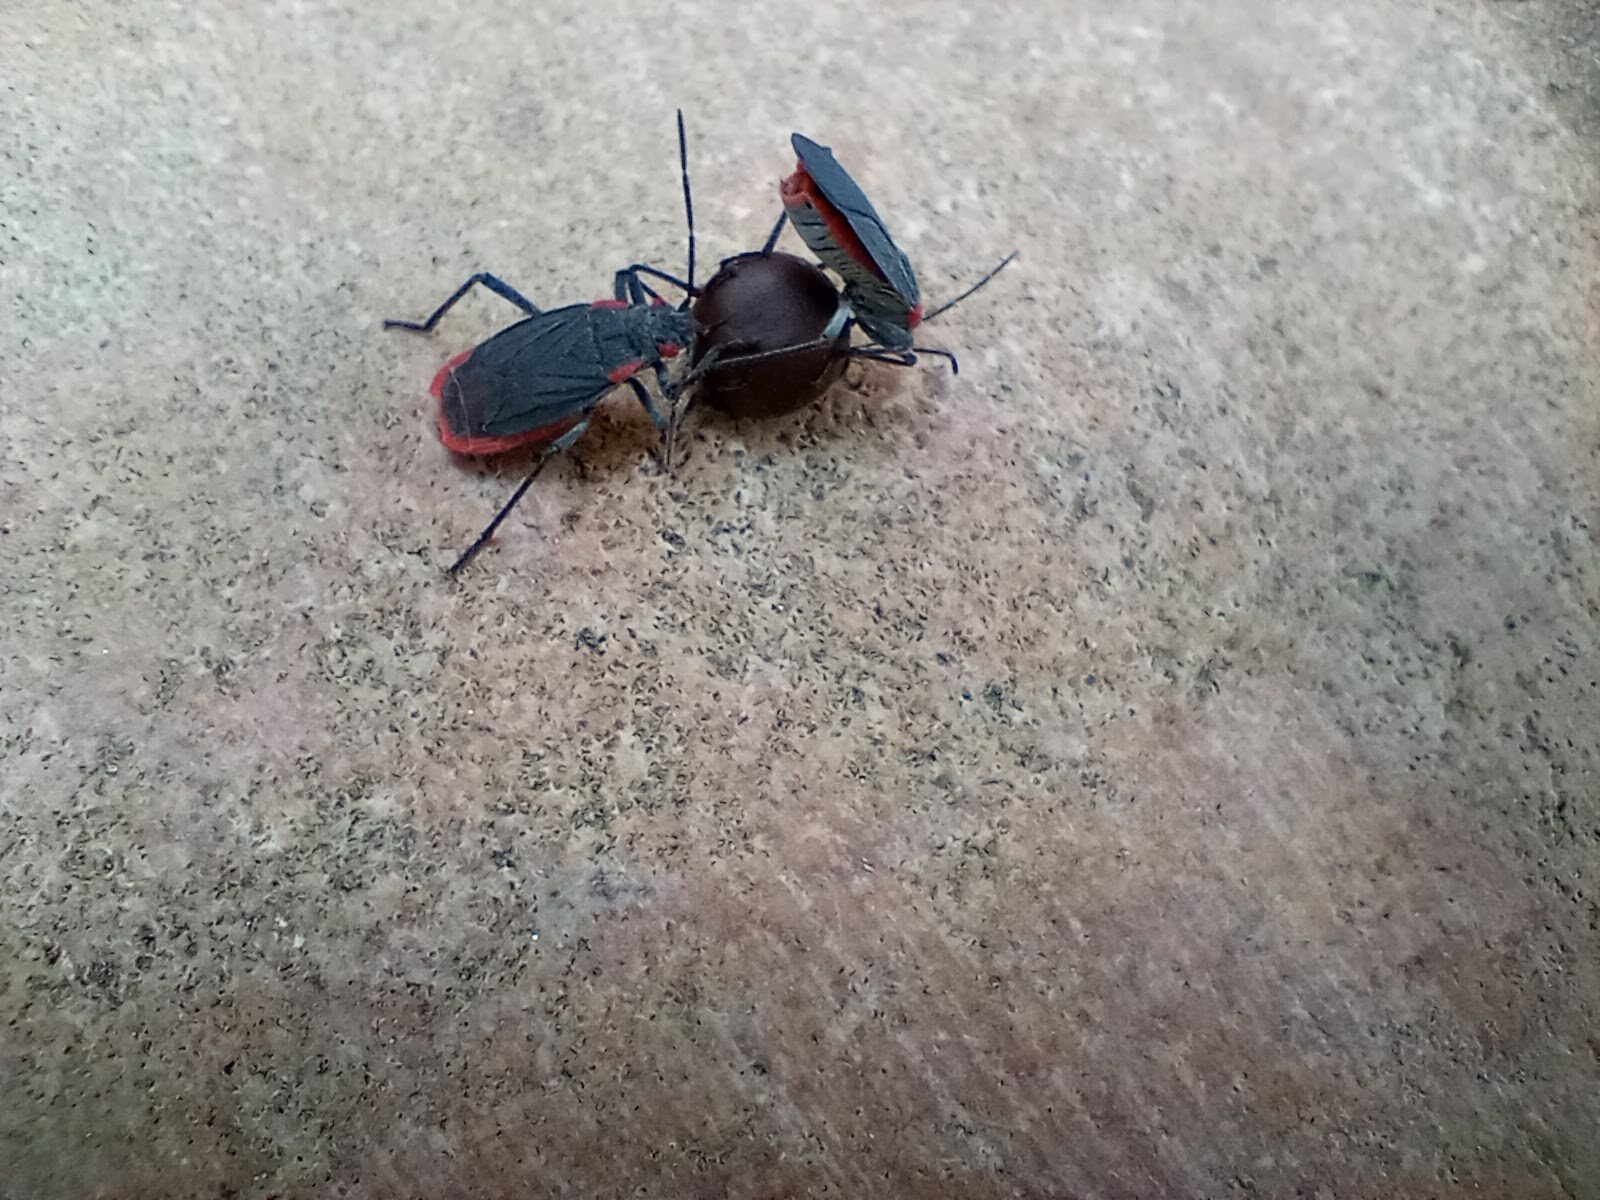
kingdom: Animalia
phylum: Arthropoda
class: Insecta
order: Hemiptera
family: Rhopalidae
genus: Jadera
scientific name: Jadera haematoloma
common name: Red-shouldered bug
